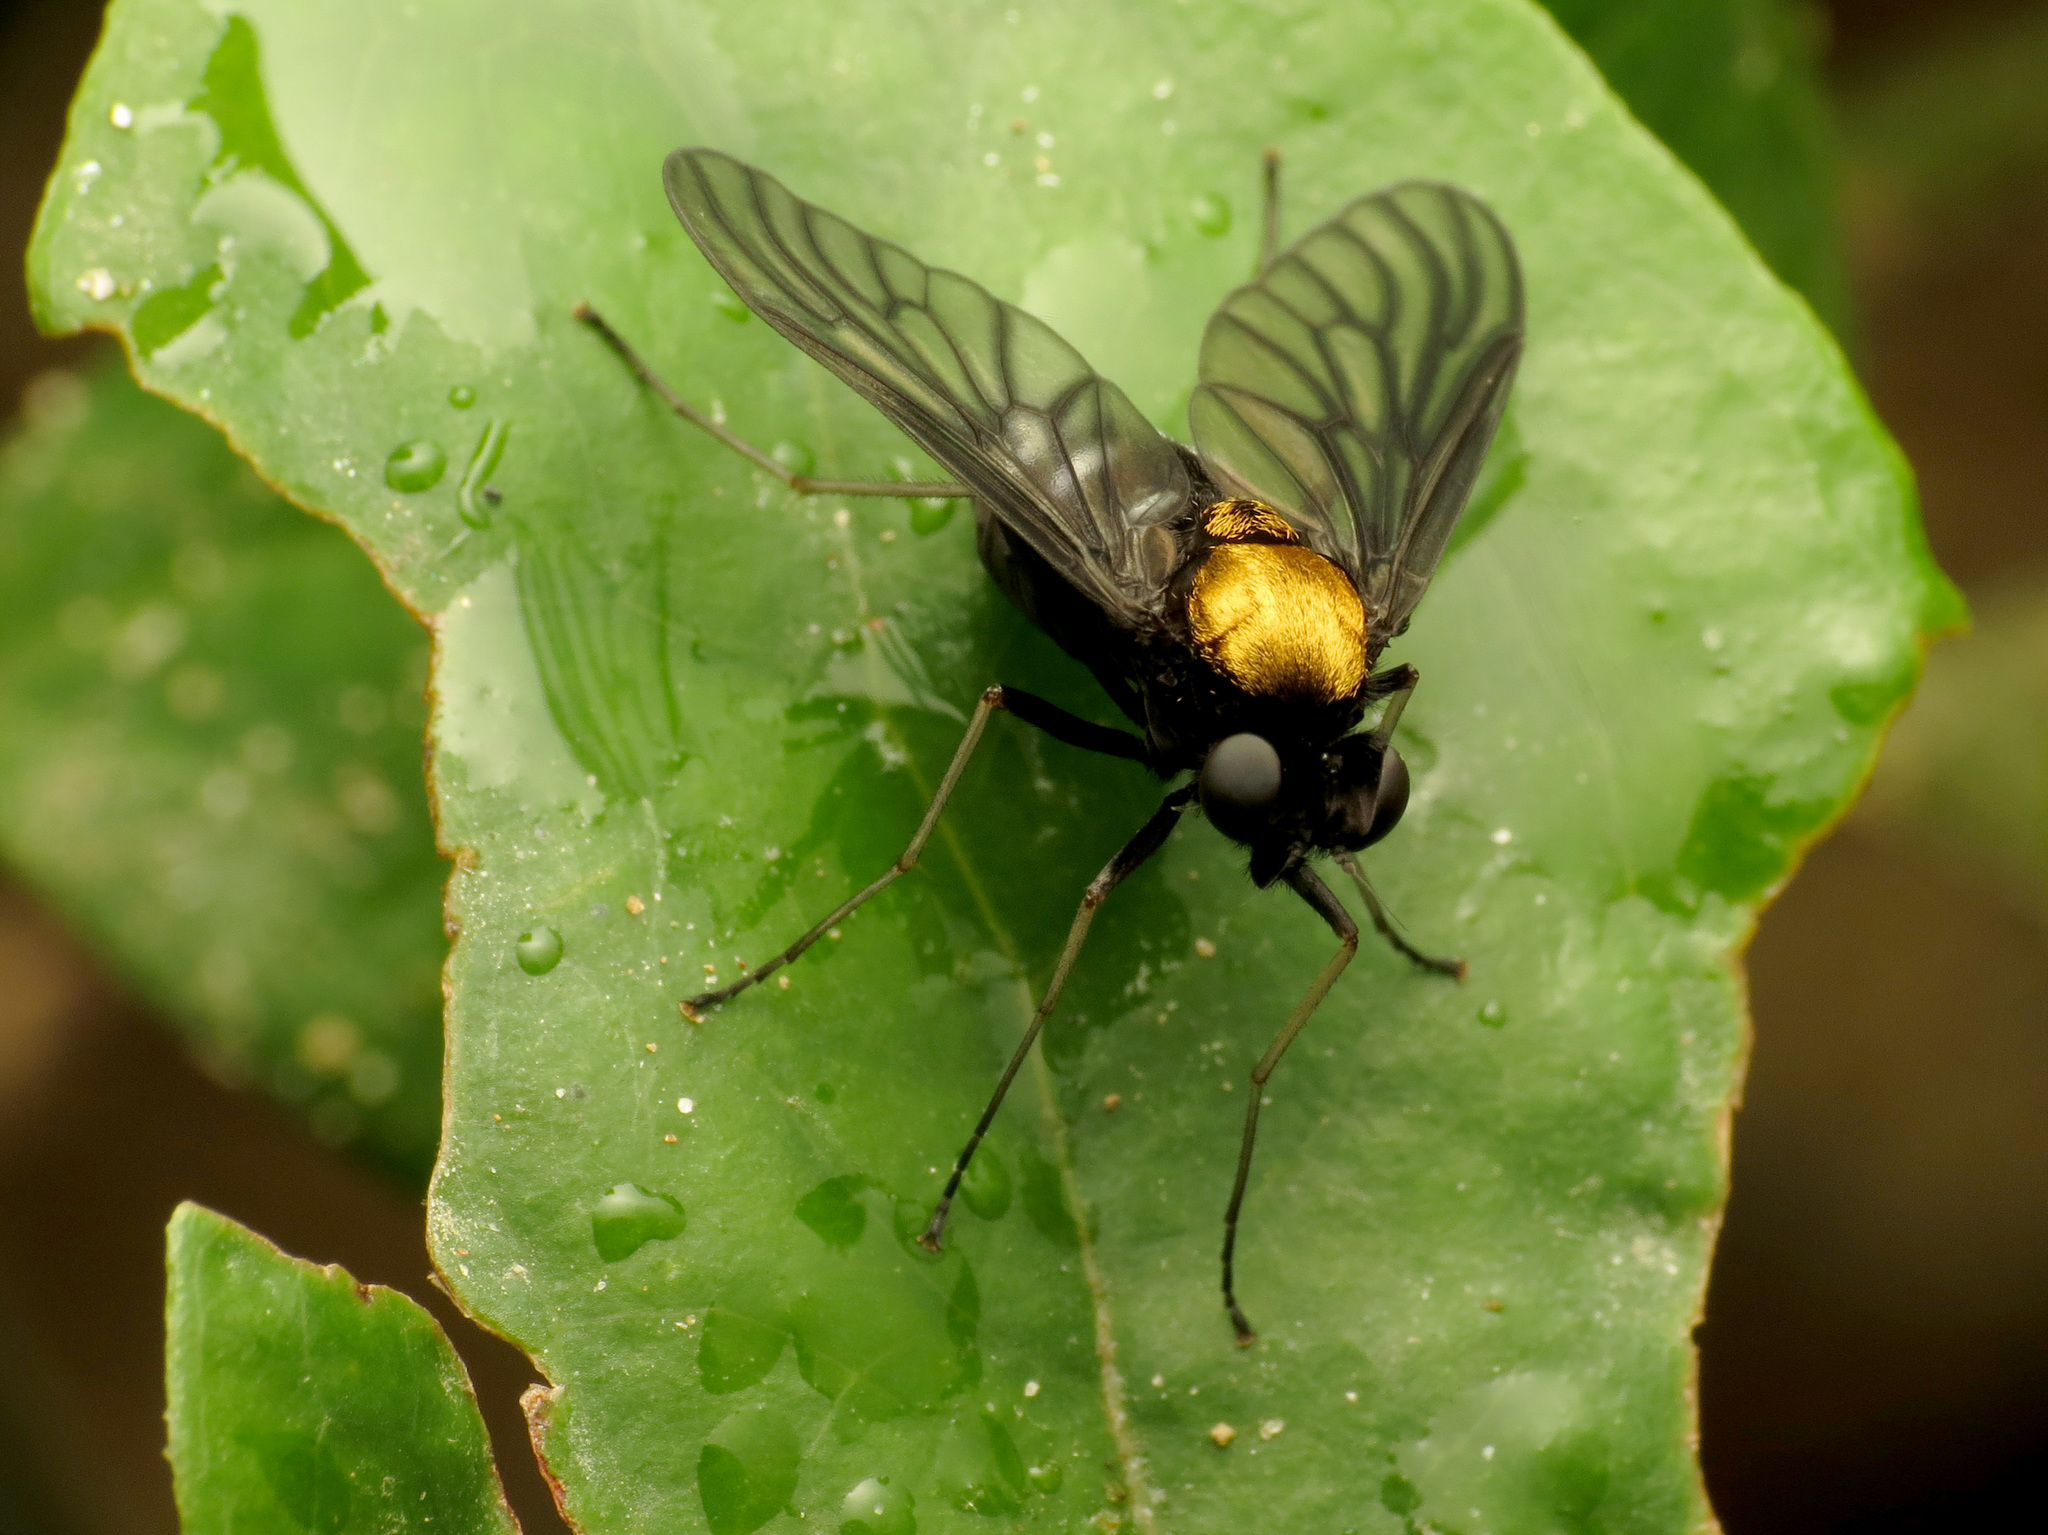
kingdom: Animalia
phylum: Arthropoda
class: Insecta
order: Diptera
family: Rhagionidae
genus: Chrysopilus
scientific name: Chrysopilus thoracicus
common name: Golden-backed snipe fly
